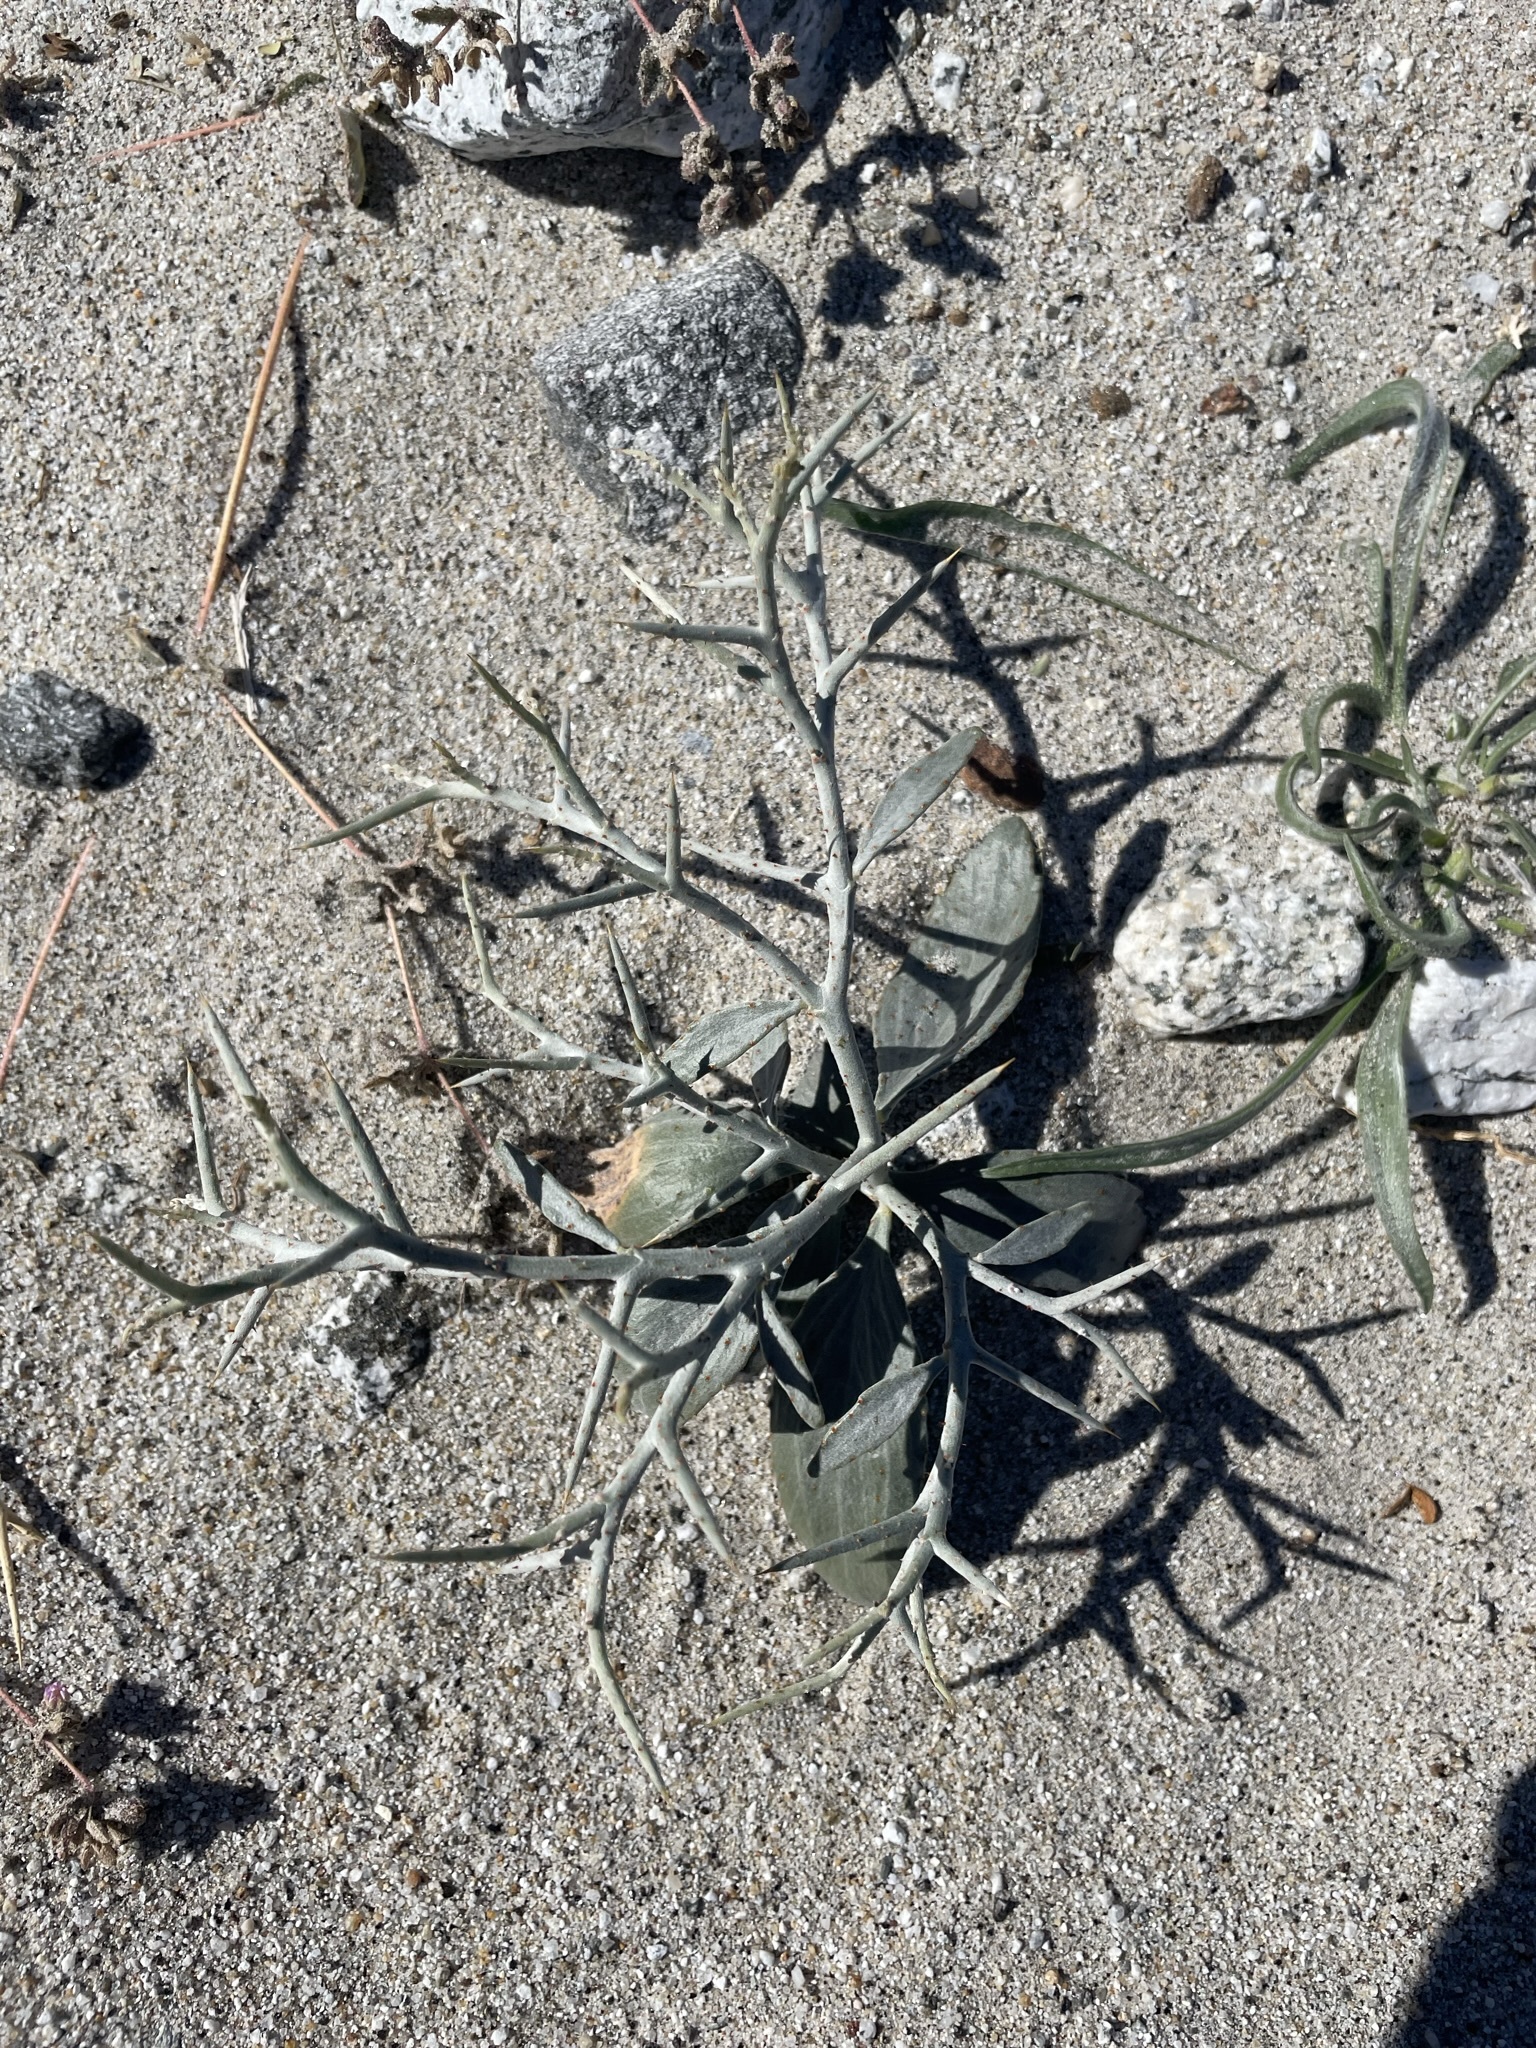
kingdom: Plantae
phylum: Tracheophyta
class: Magnoliopsida
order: Fabales
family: Fabaceae
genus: Psorothamnus
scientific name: Psorothamnus spinosus
